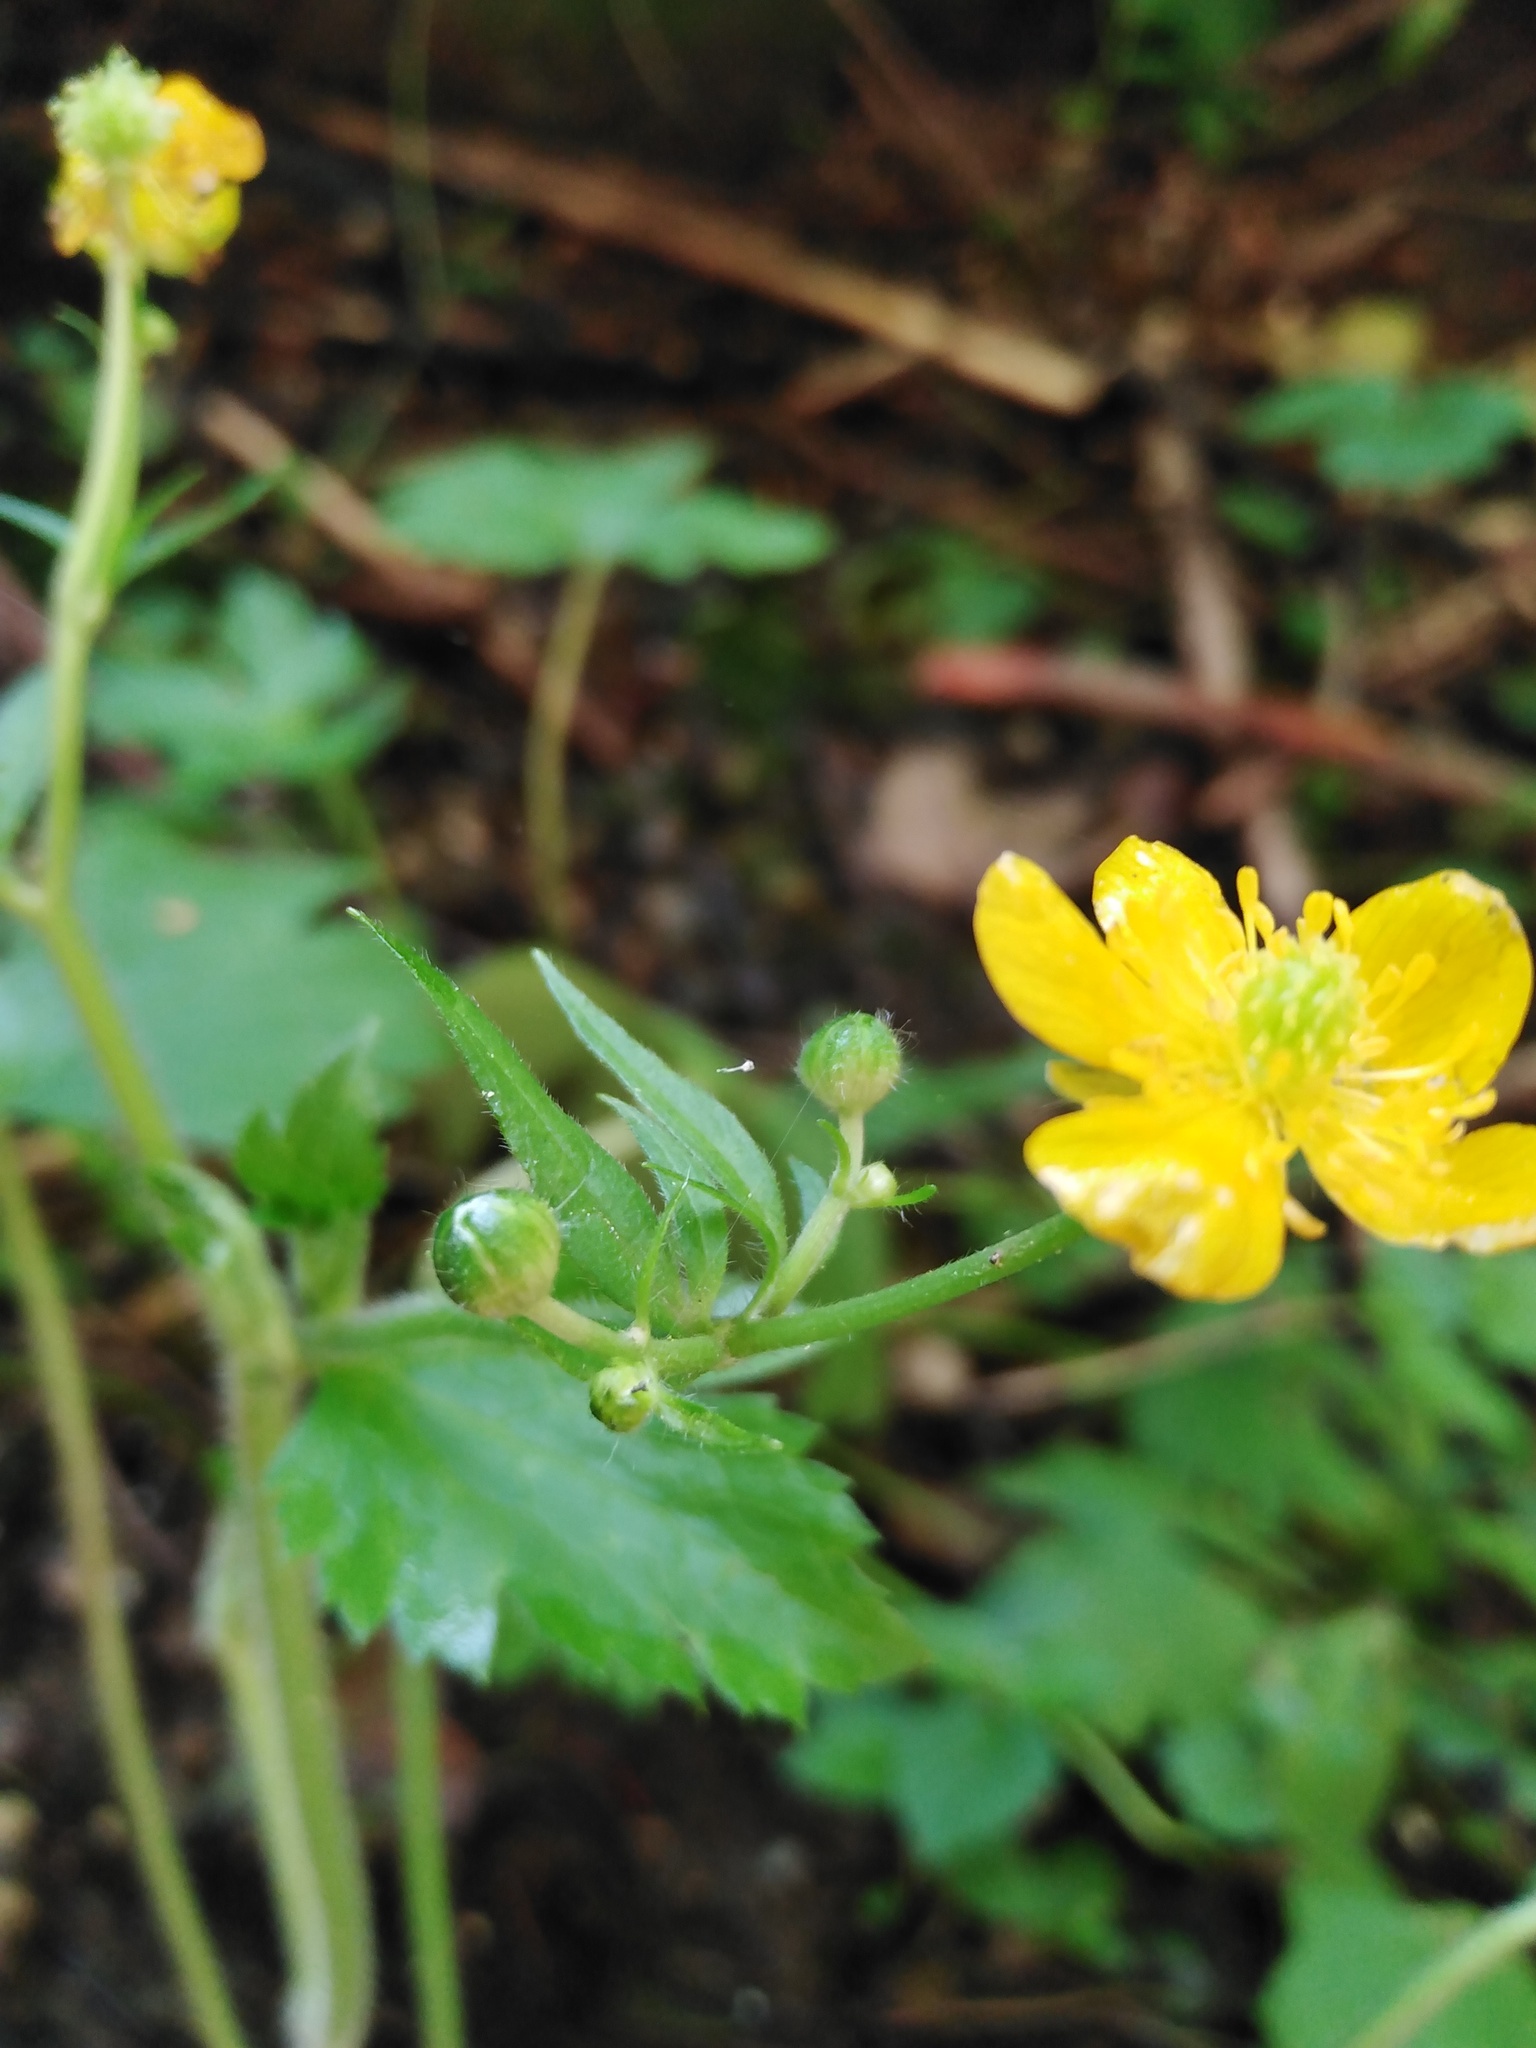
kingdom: Plantae
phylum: Tracheophyta
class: Magnoliopsida
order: Ranunculales
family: Ranunculaceae
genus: Ranunculus
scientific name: Ranunculus lanuginosus
